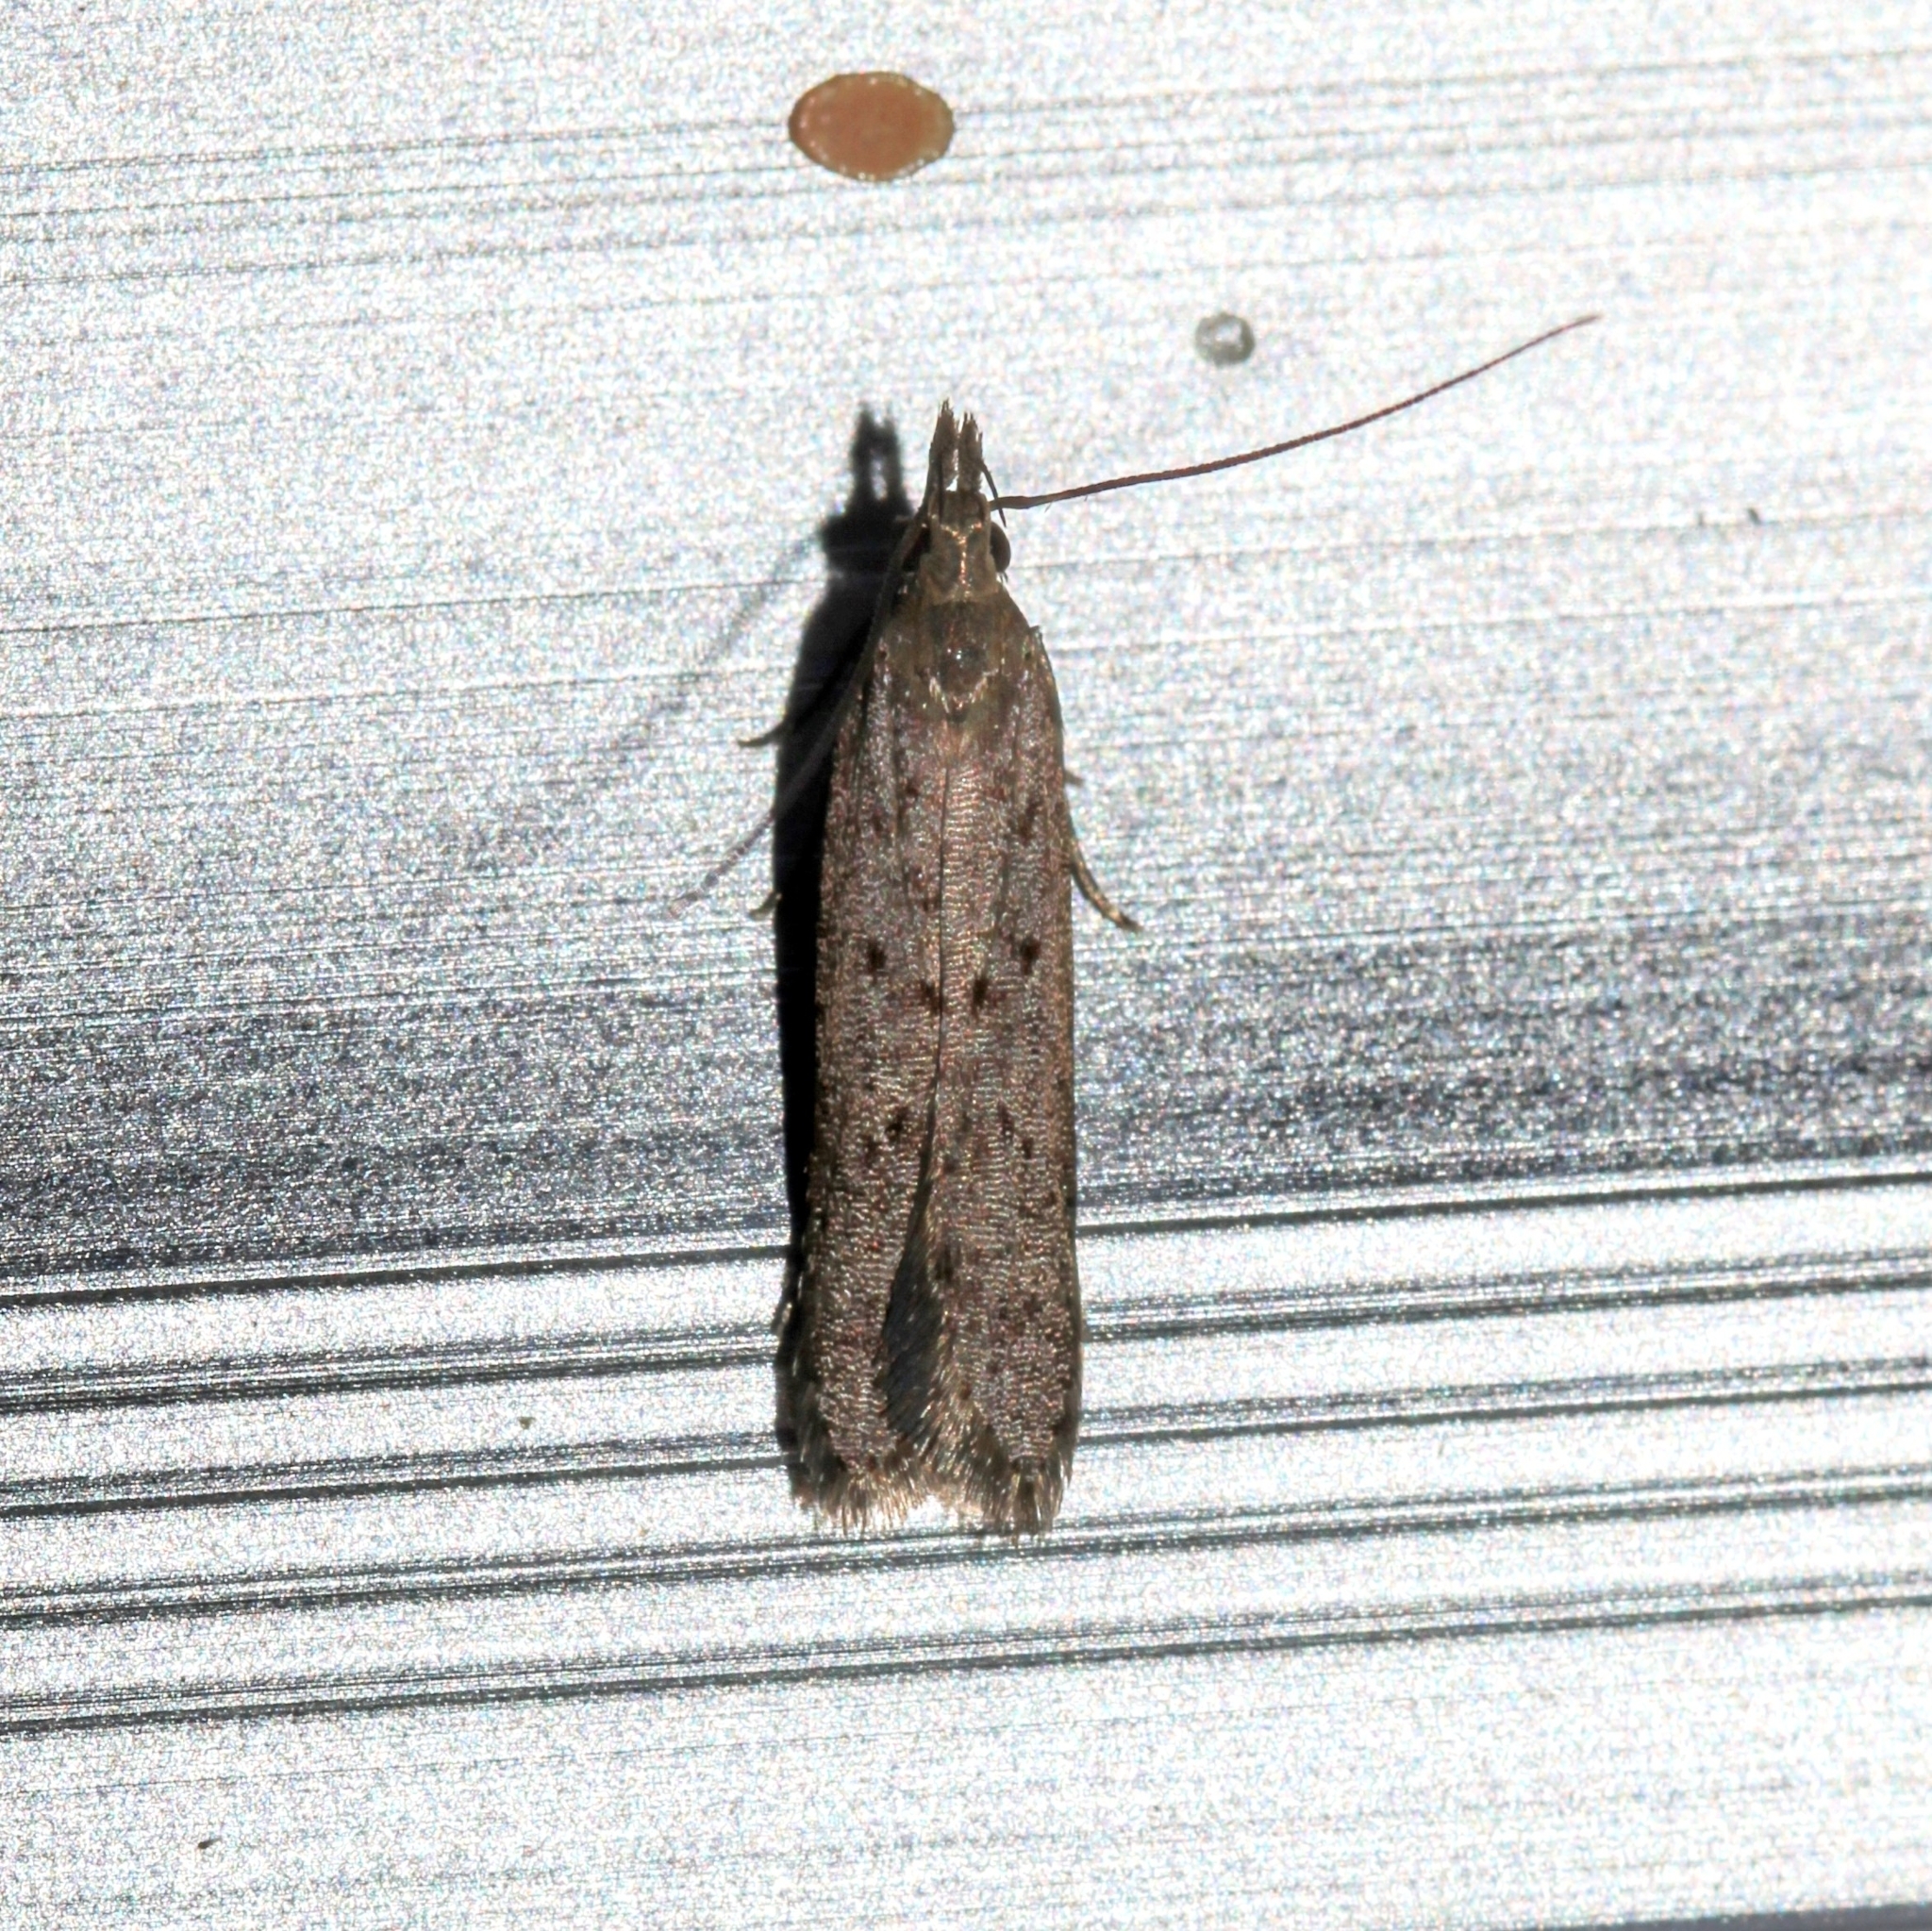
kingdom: Animalia
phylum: Arthropoda
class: Insecta
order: Lepidoptera
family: Gelechiidae
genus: Dichomeris
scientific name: Dichomeris ligulella
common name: Moth
